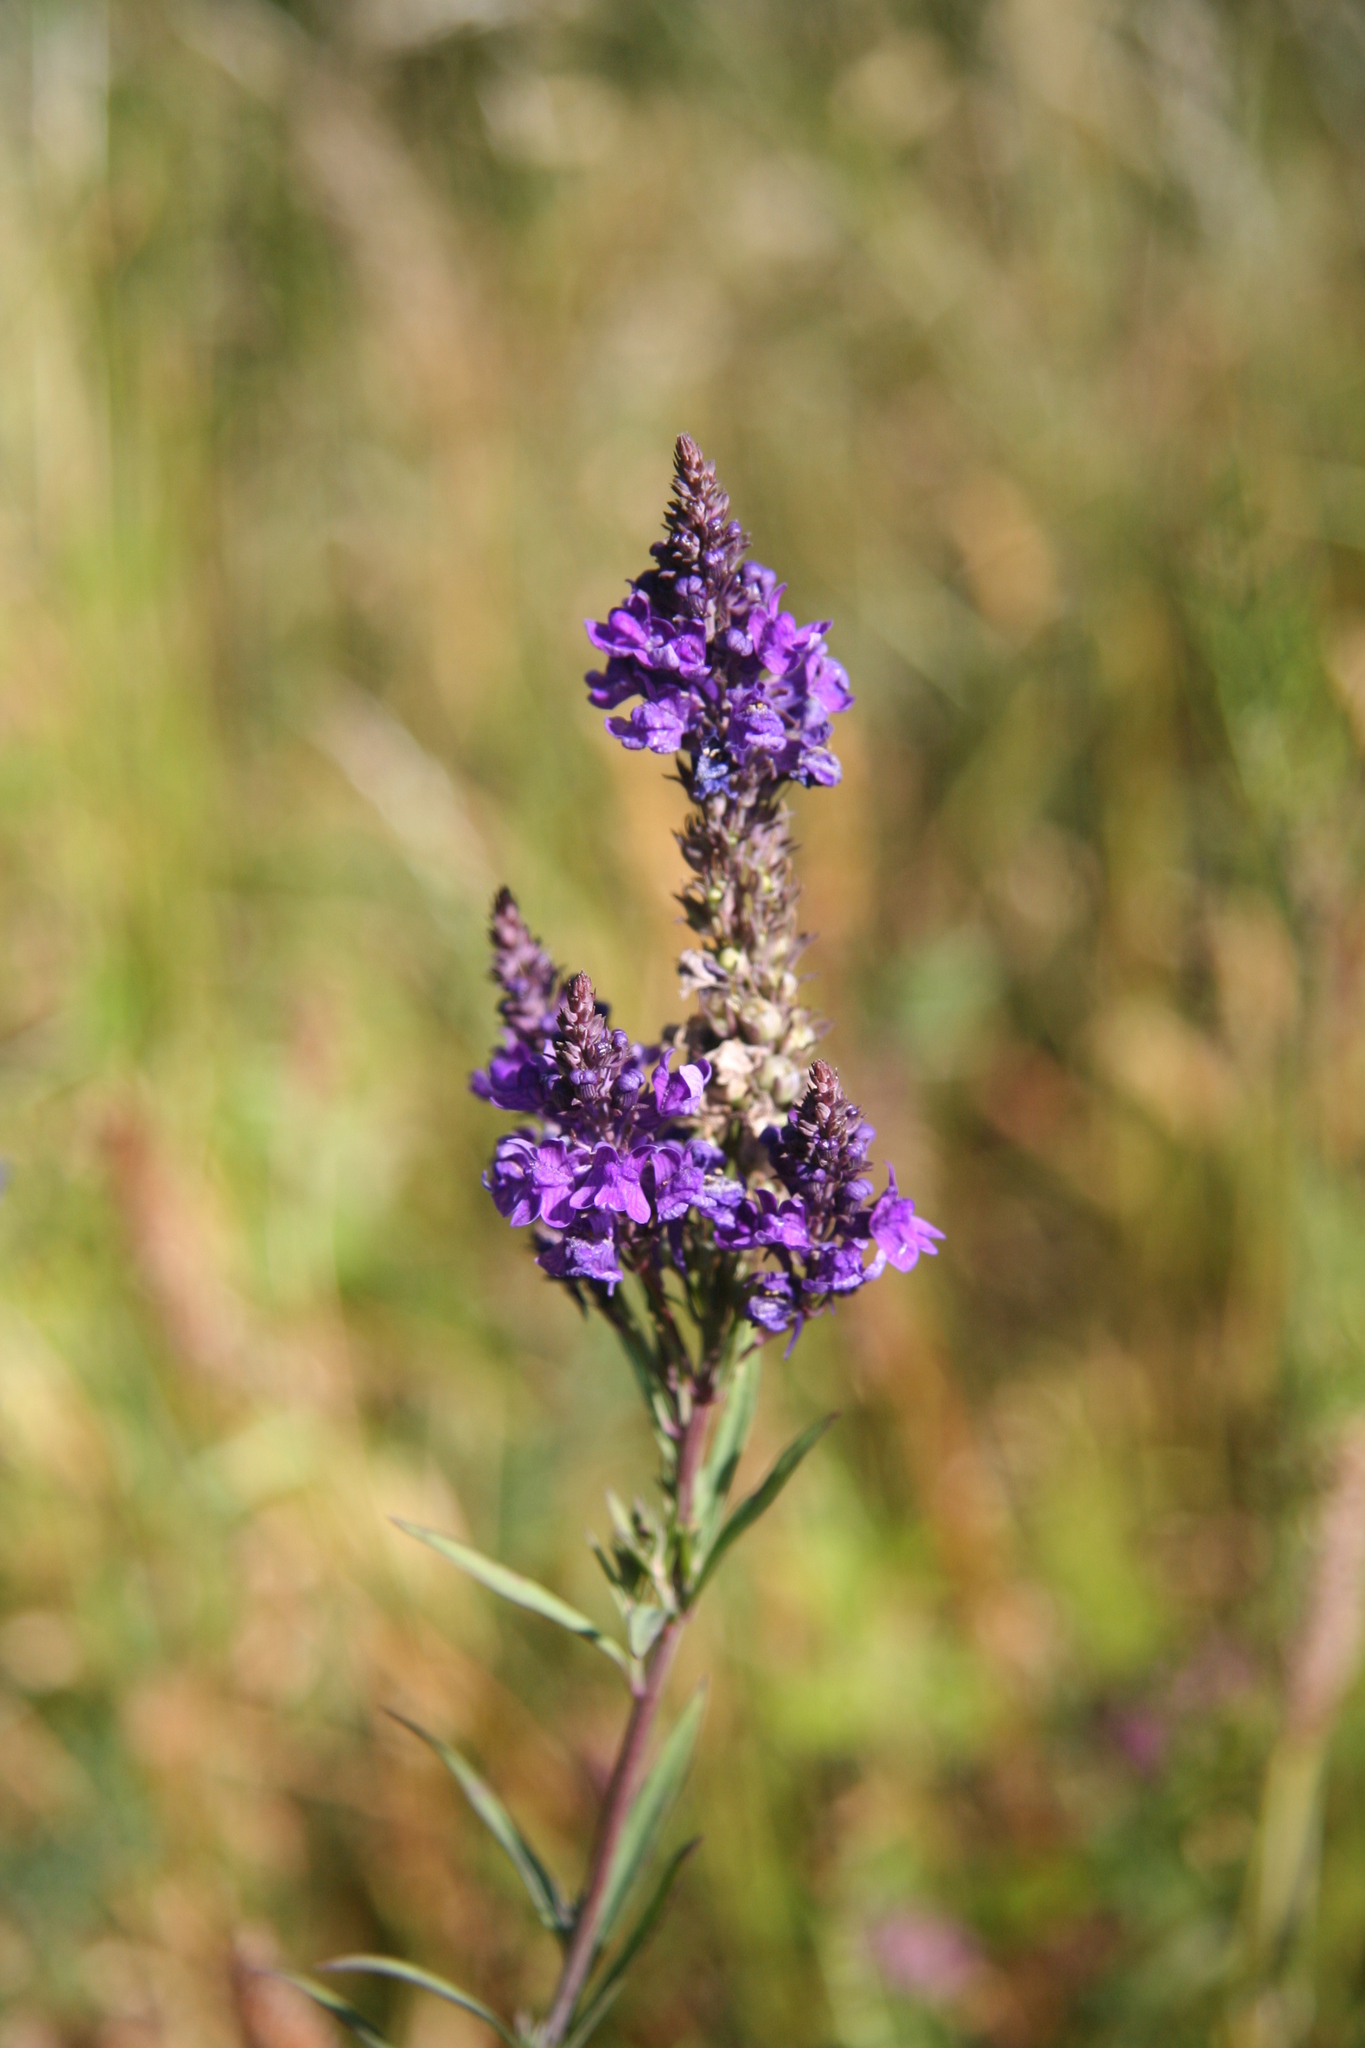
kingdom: Plantae
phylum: Tracheophyta
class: Magnoliopsida
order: Lamiales
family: Plantaginaceae
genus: Linaria
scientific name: Linaria purpurea
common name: Purple toadflax
